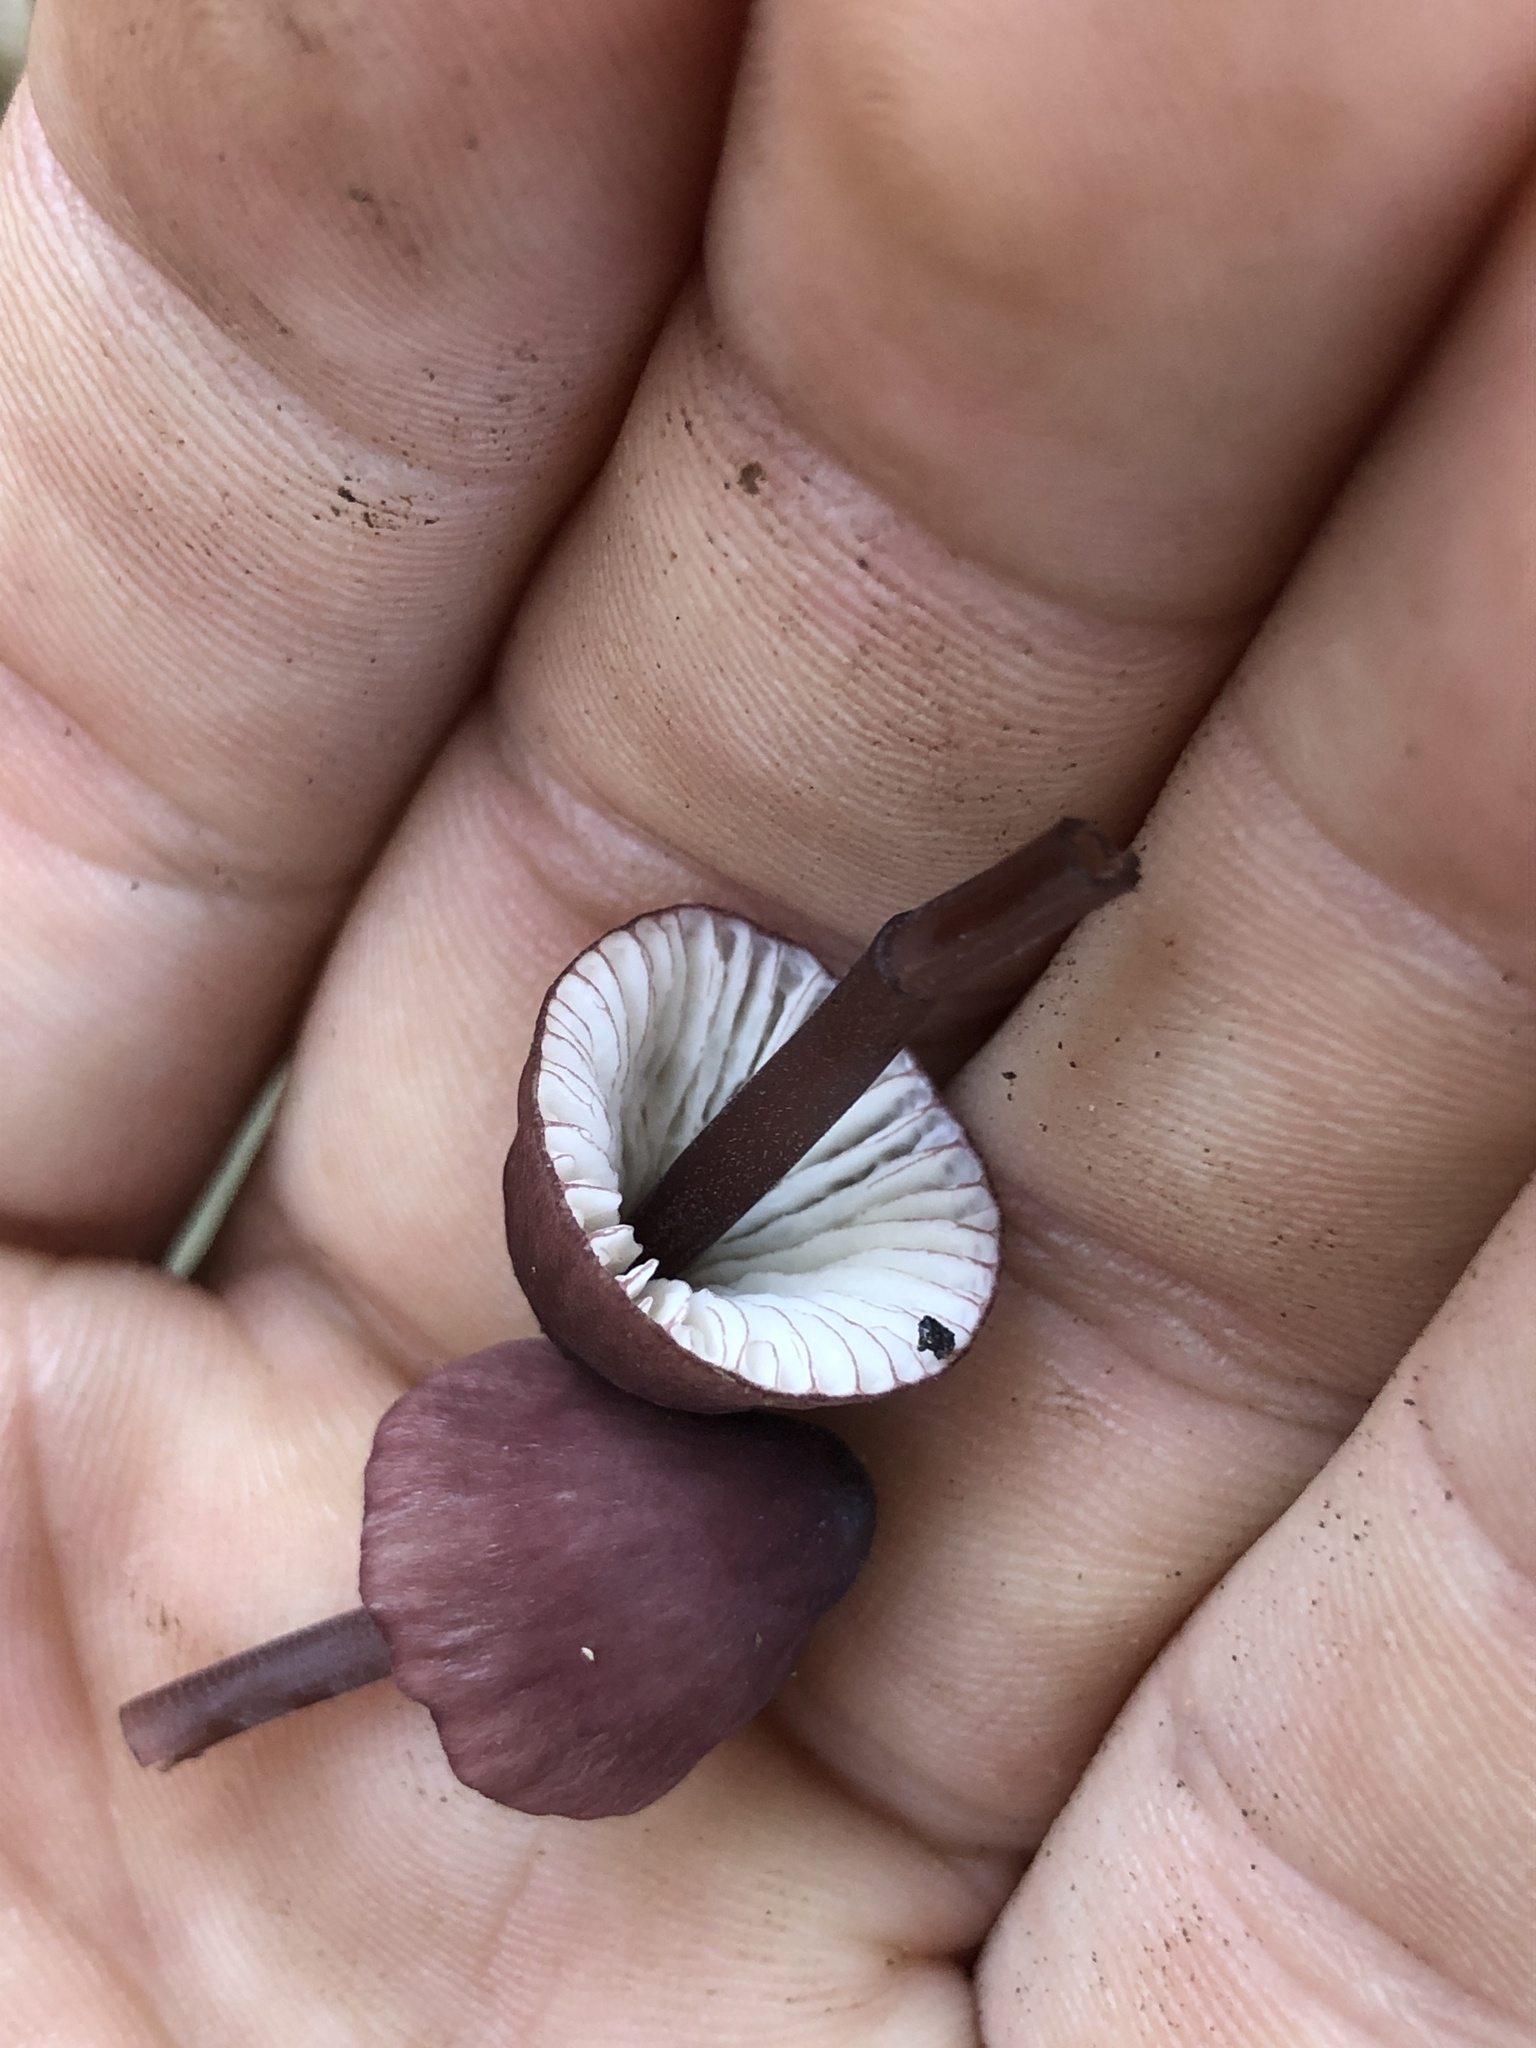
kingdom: Fungi
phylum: Basidiomycota
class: Agaricomycetes
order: Agaricales
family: Mycenaceae
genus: Mycena
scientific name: Mycena purpureofusca
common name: Purple edge bonnet
